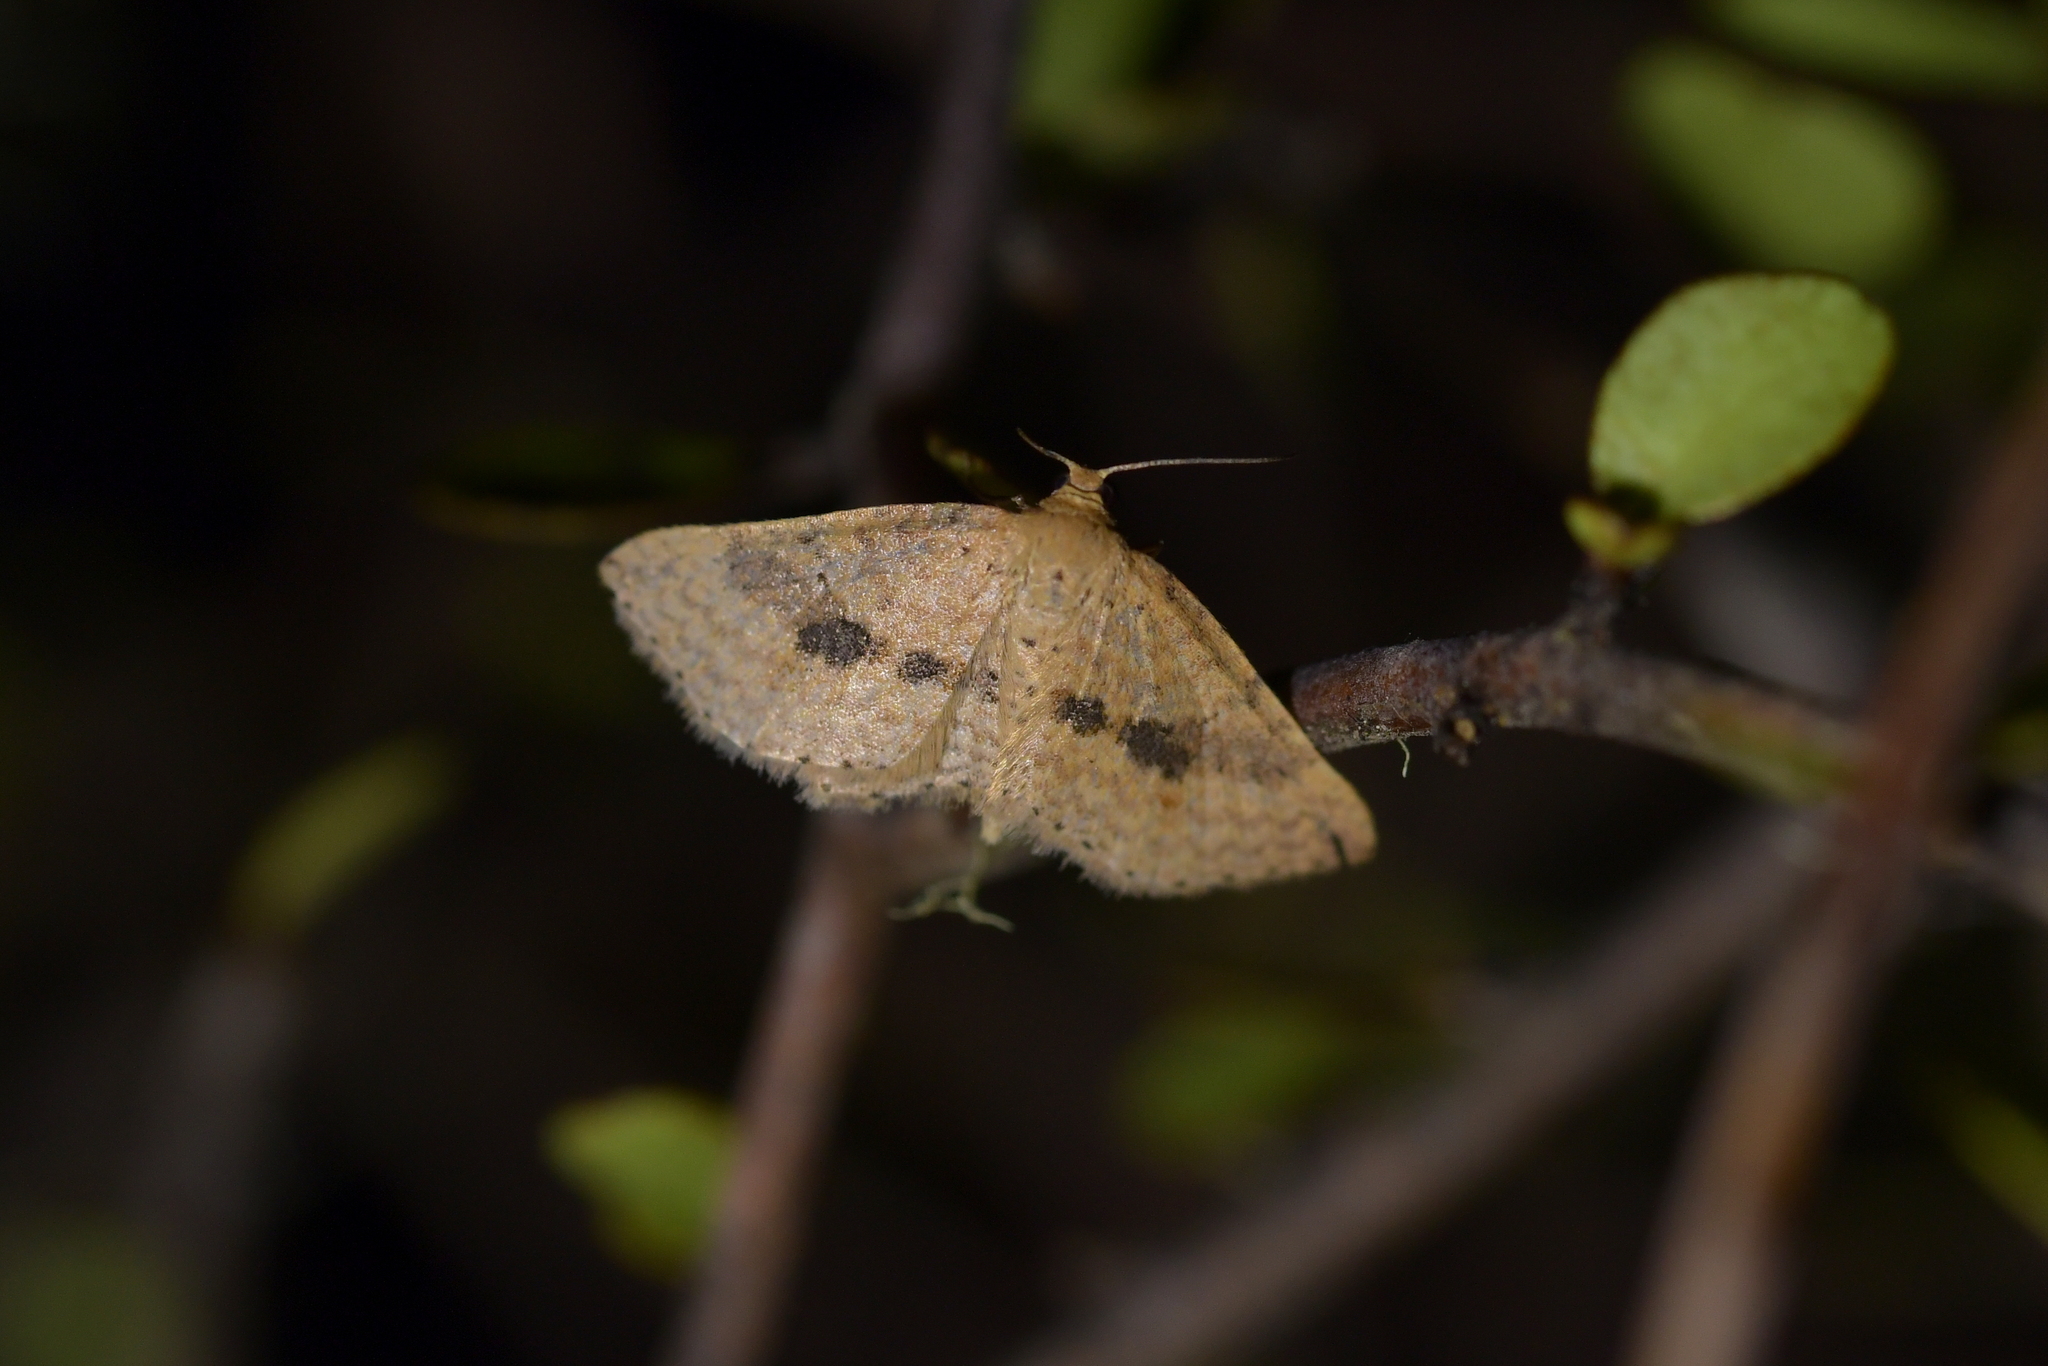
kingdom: Animalia
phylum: Arthropoda
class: Insecta
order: Lepidoptera
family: Geometridae
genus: Epicyme
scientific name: Epicyme rubropunctaria
